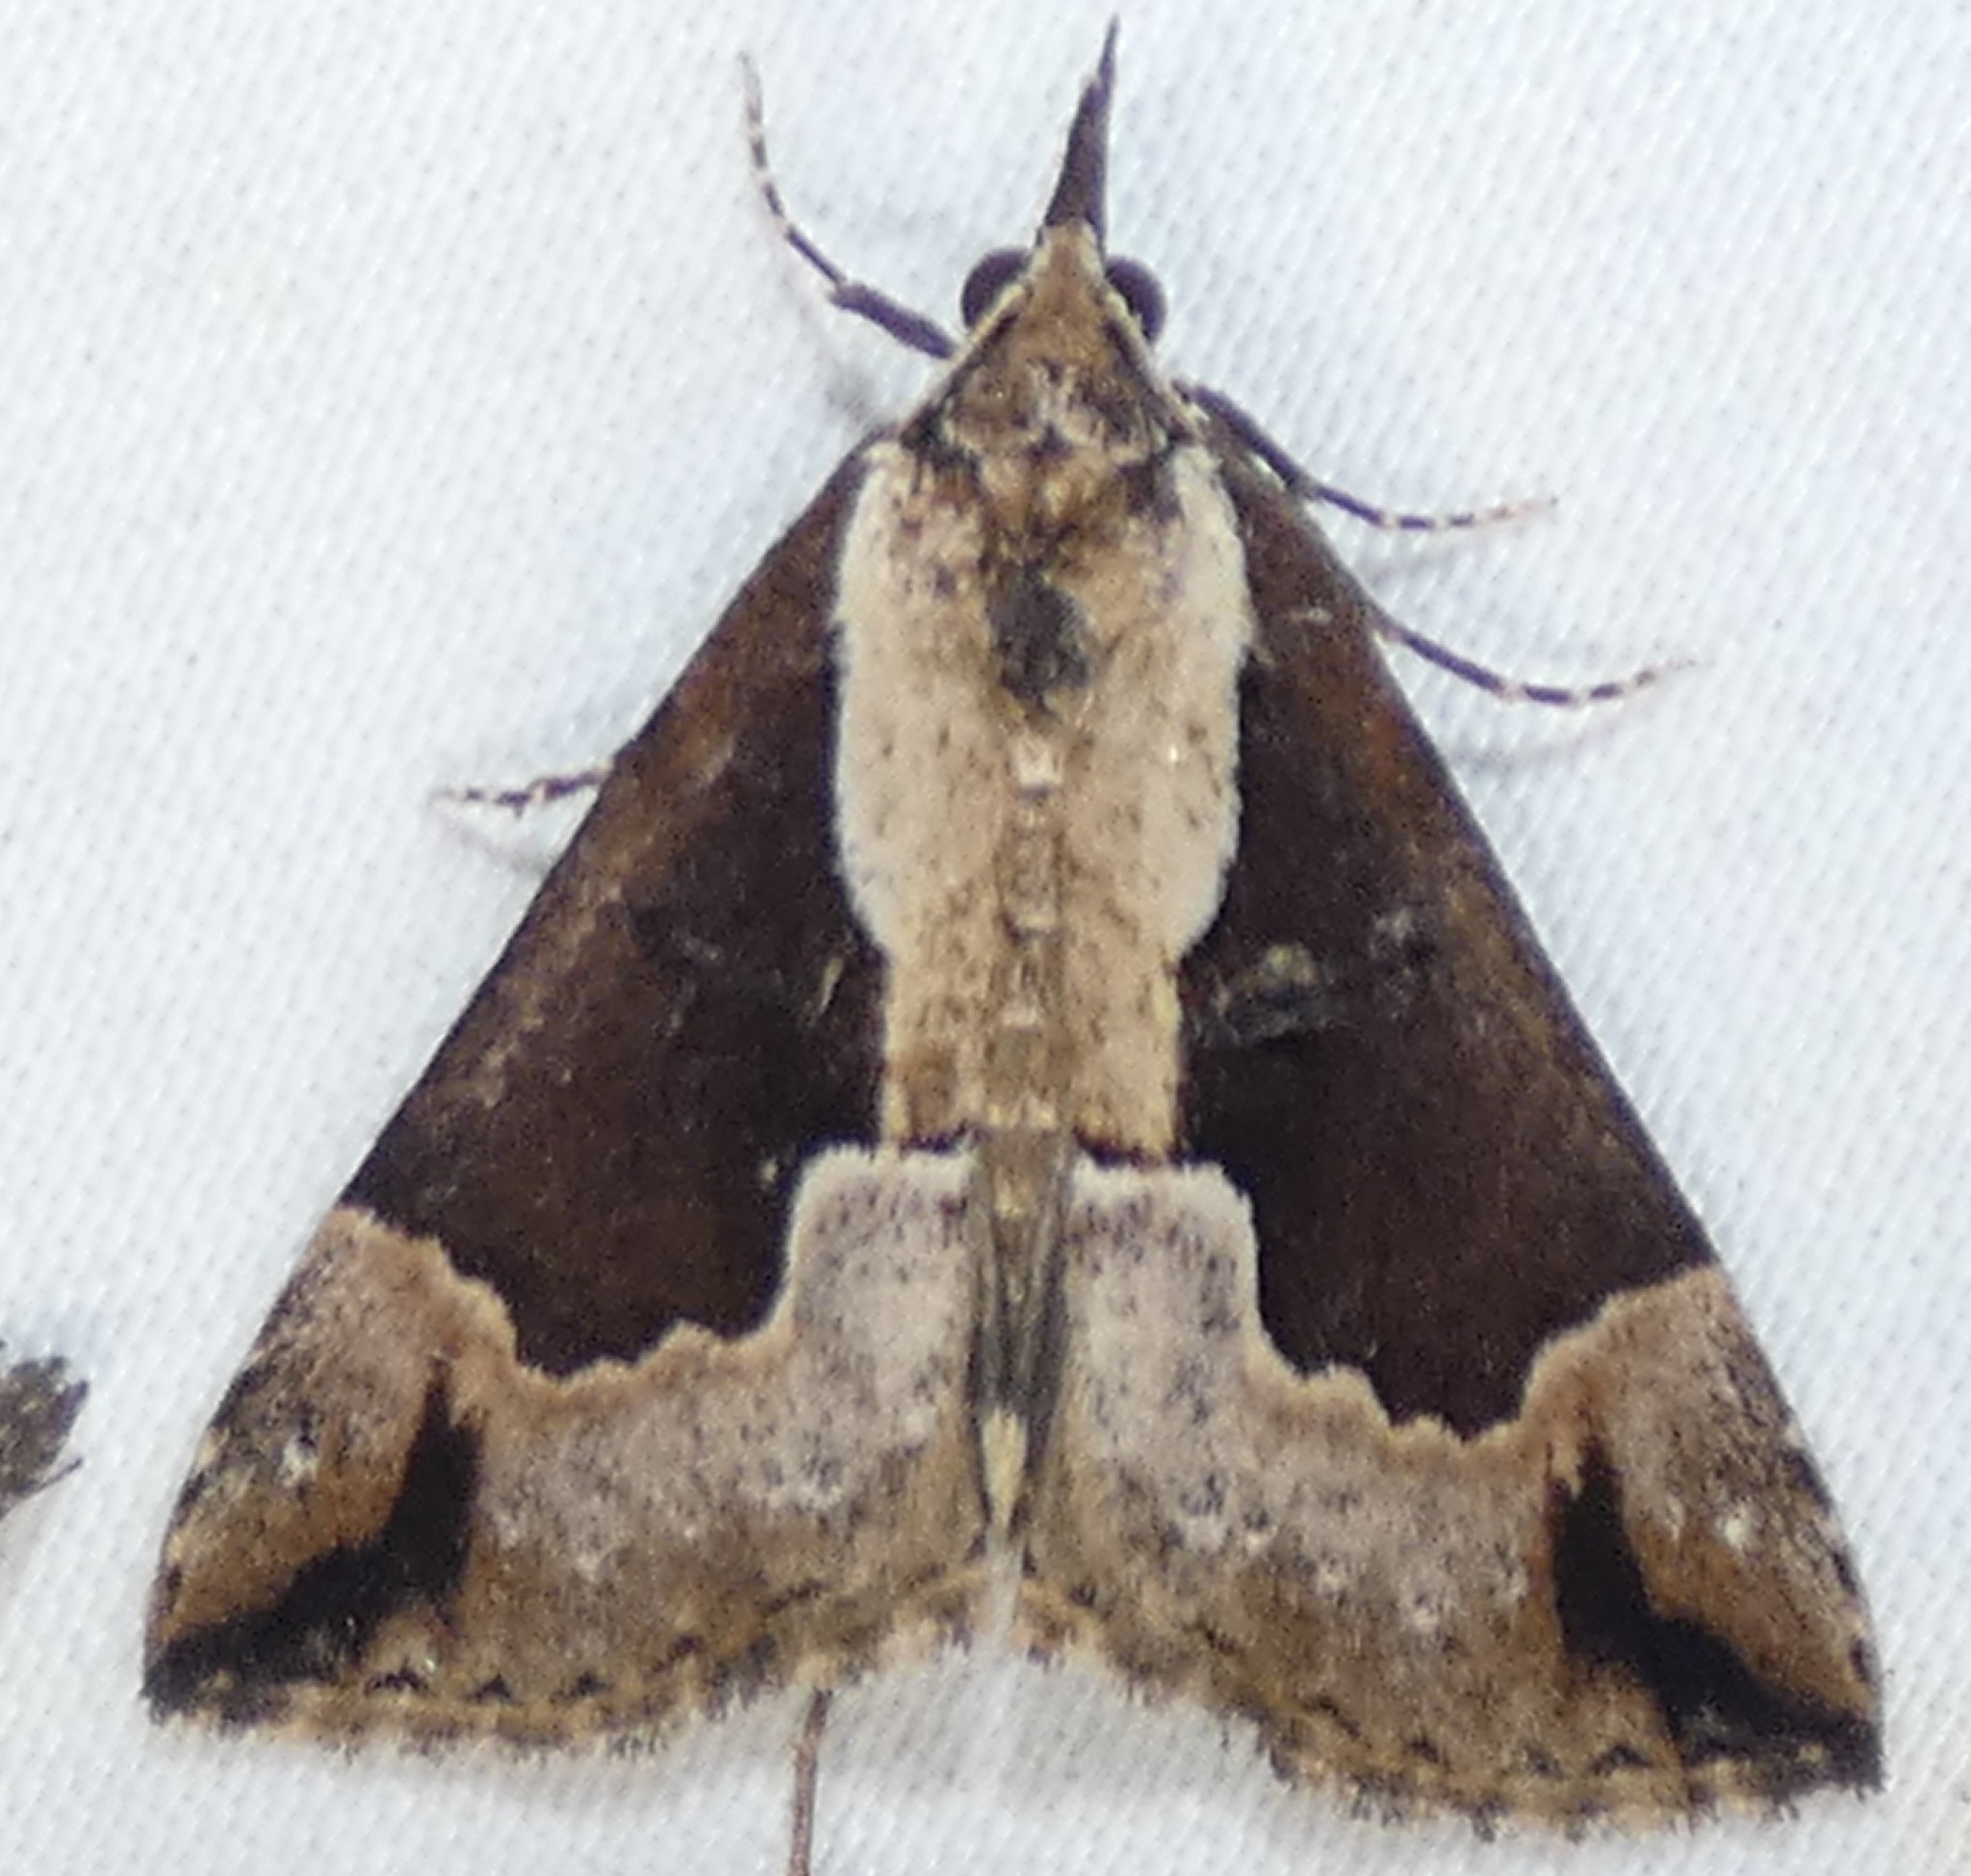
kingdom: Animalia
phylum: Arthropoda
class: Insecta
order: Lepidoptera
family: Erebidae
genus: Hypena
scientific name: Hypena baltimoralis
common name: Baltimore snout
